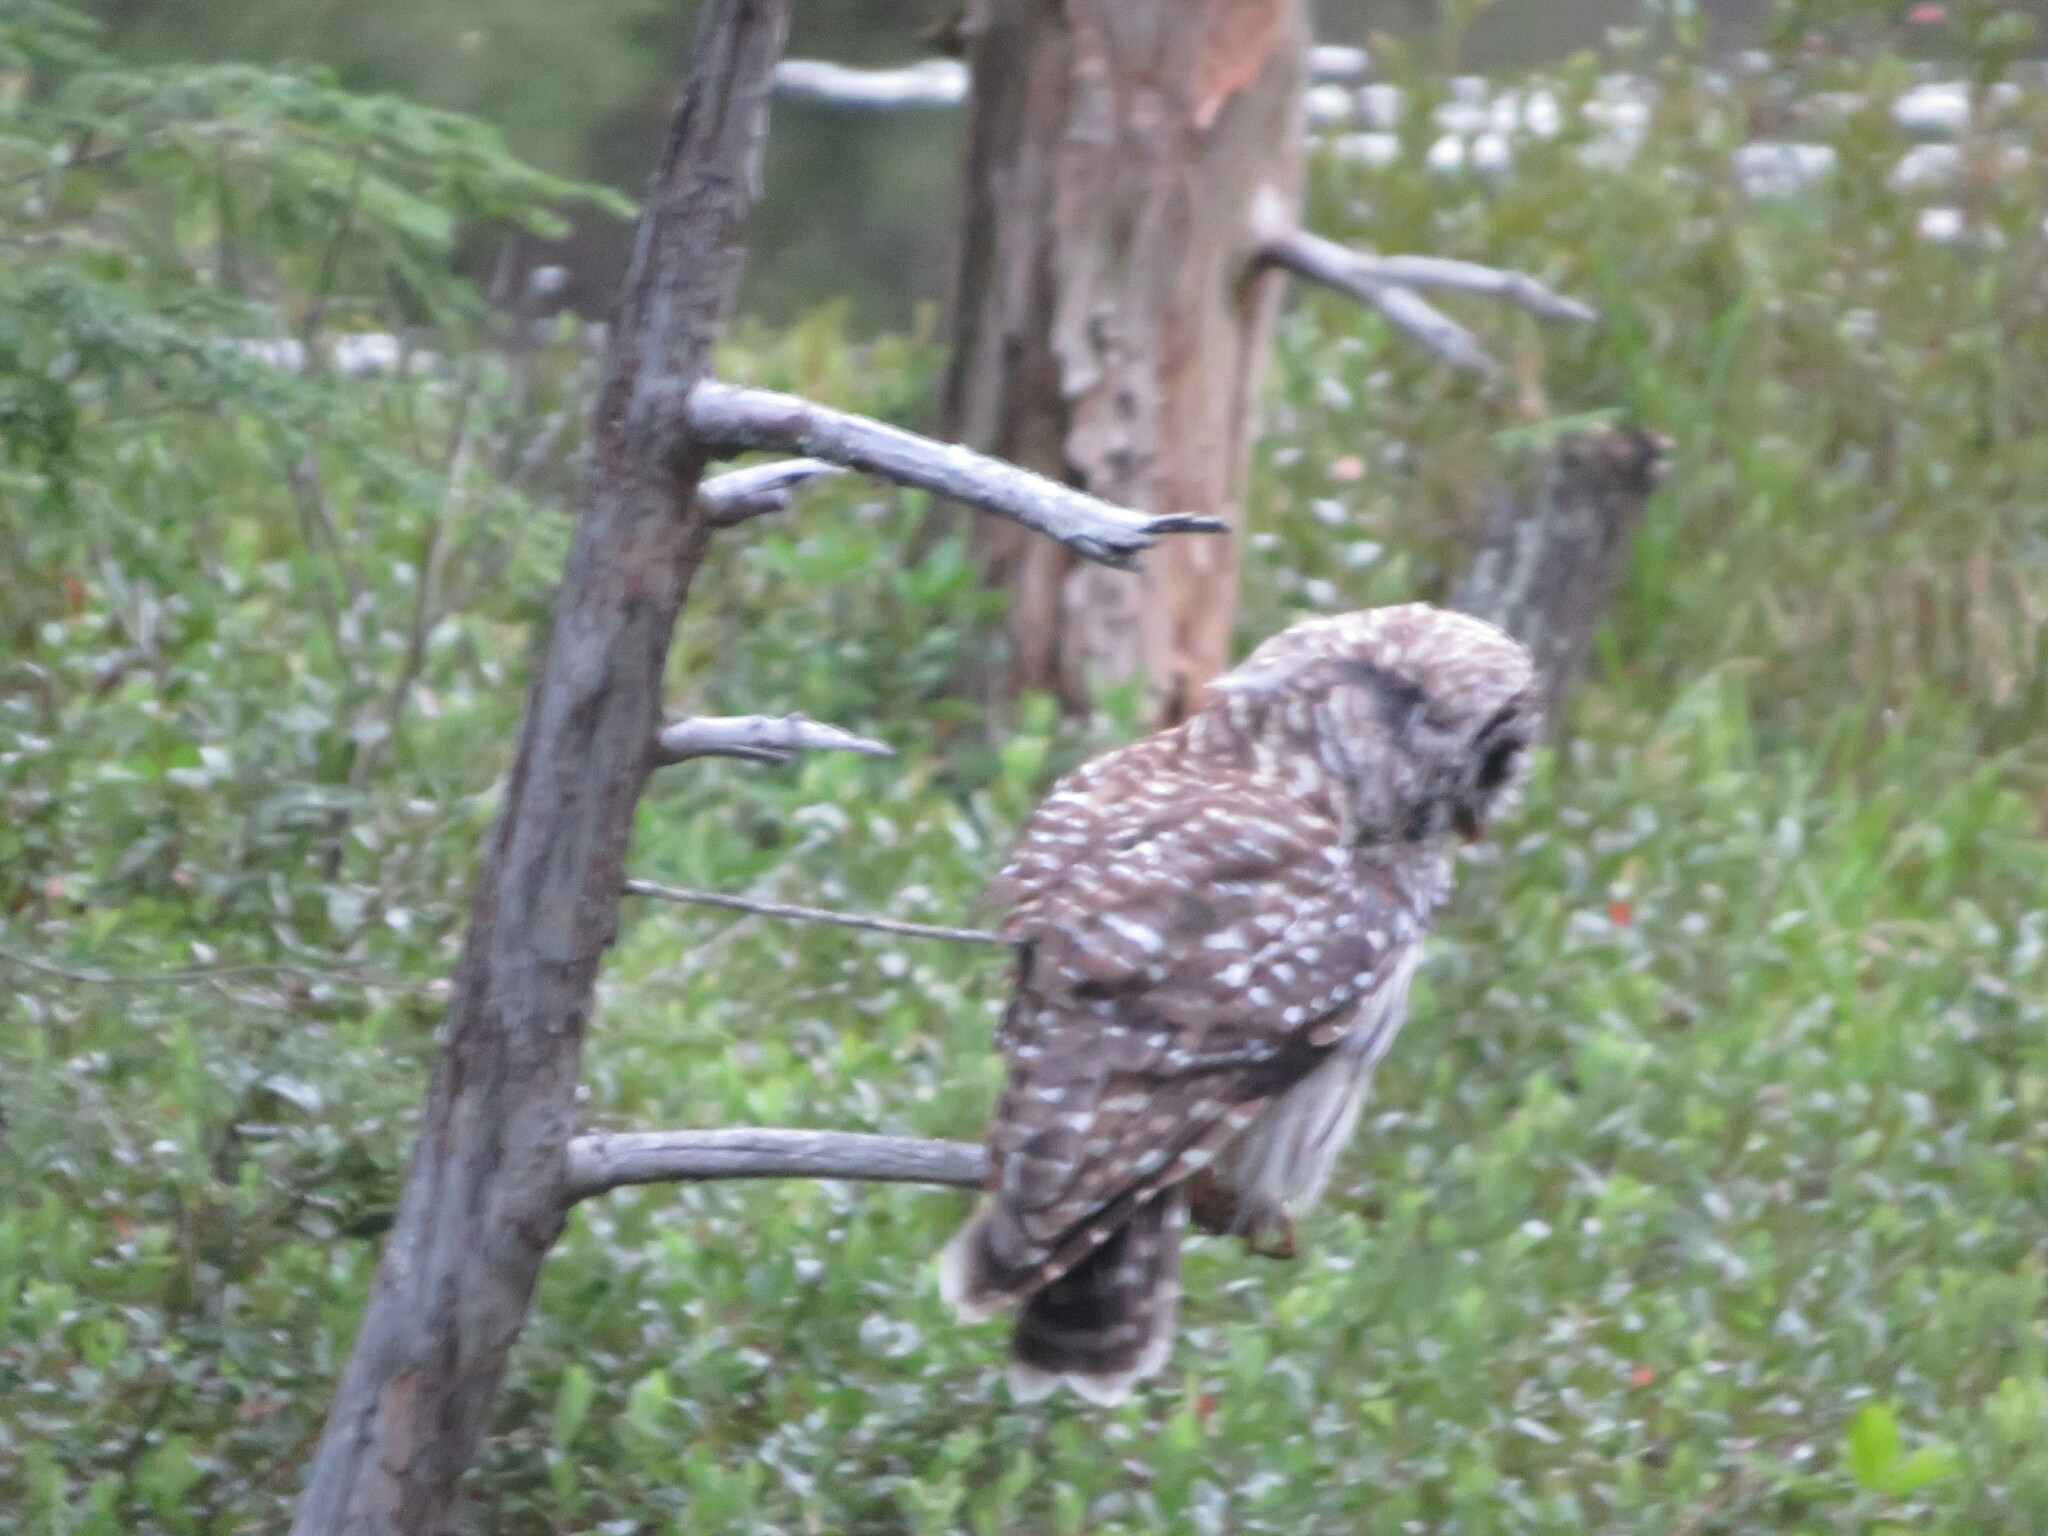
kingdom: Animalia
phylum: Chordata
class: Aves
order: Strigiformes
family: Strigidae
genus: Strix
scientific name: Strix varia
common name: Barred owl
